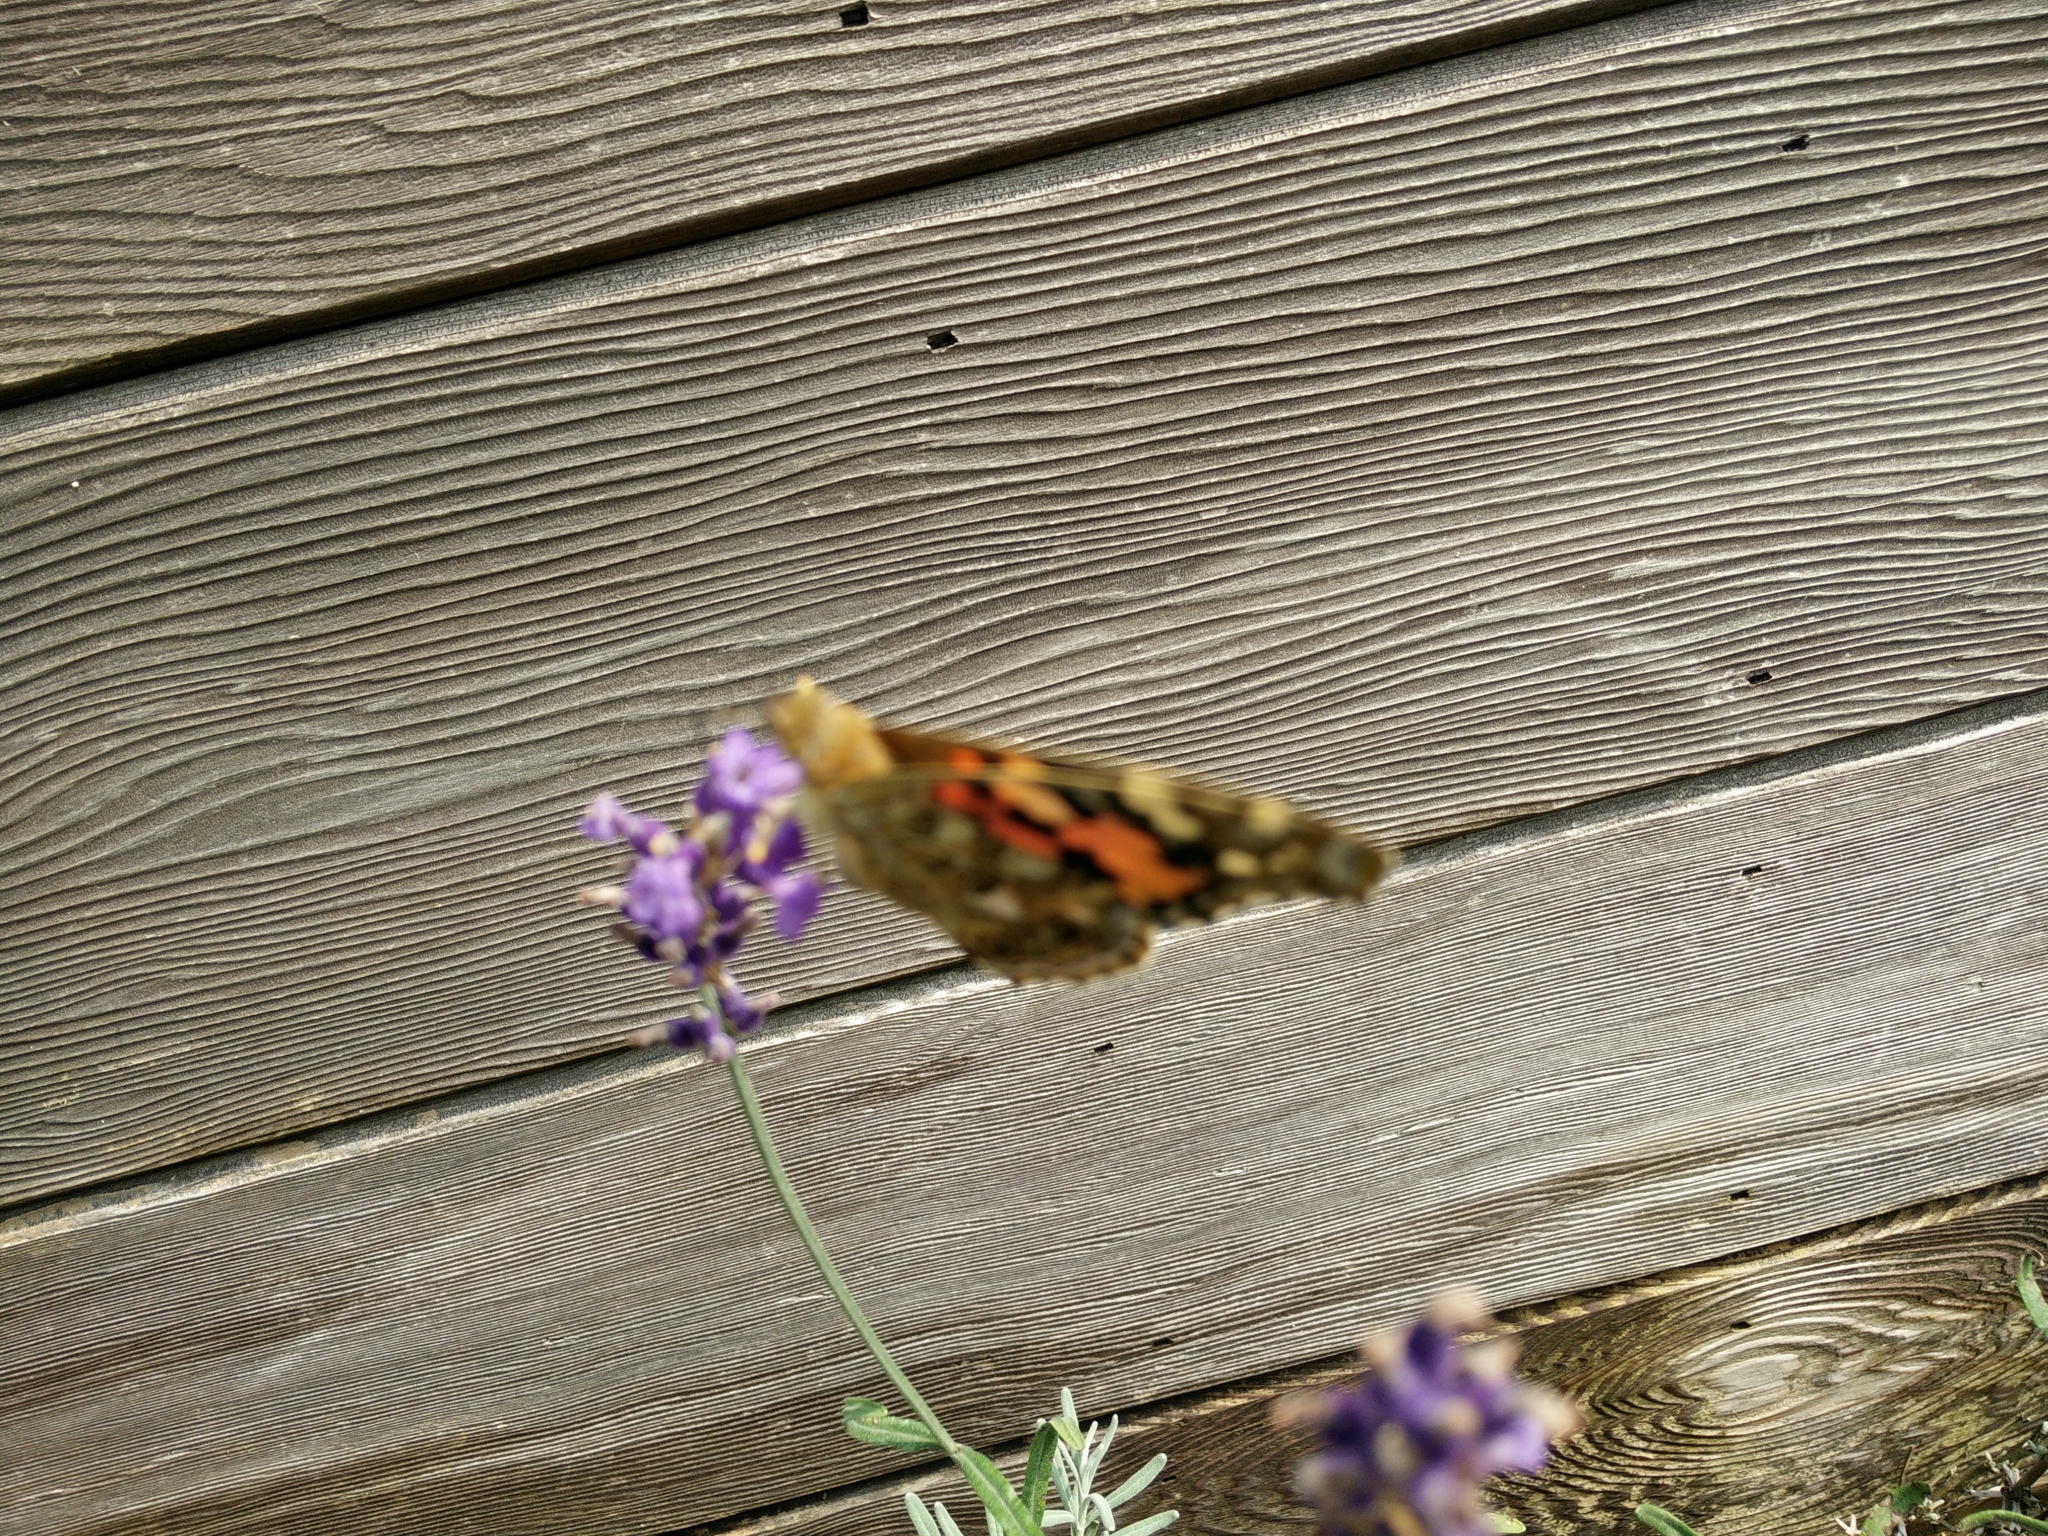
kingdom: Animalia
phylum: Arthropoda
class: Insecta
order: Lepidoptera
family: Nymphalidae
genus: Vanessa
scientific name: Vanessa cardui
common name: Painted lady
